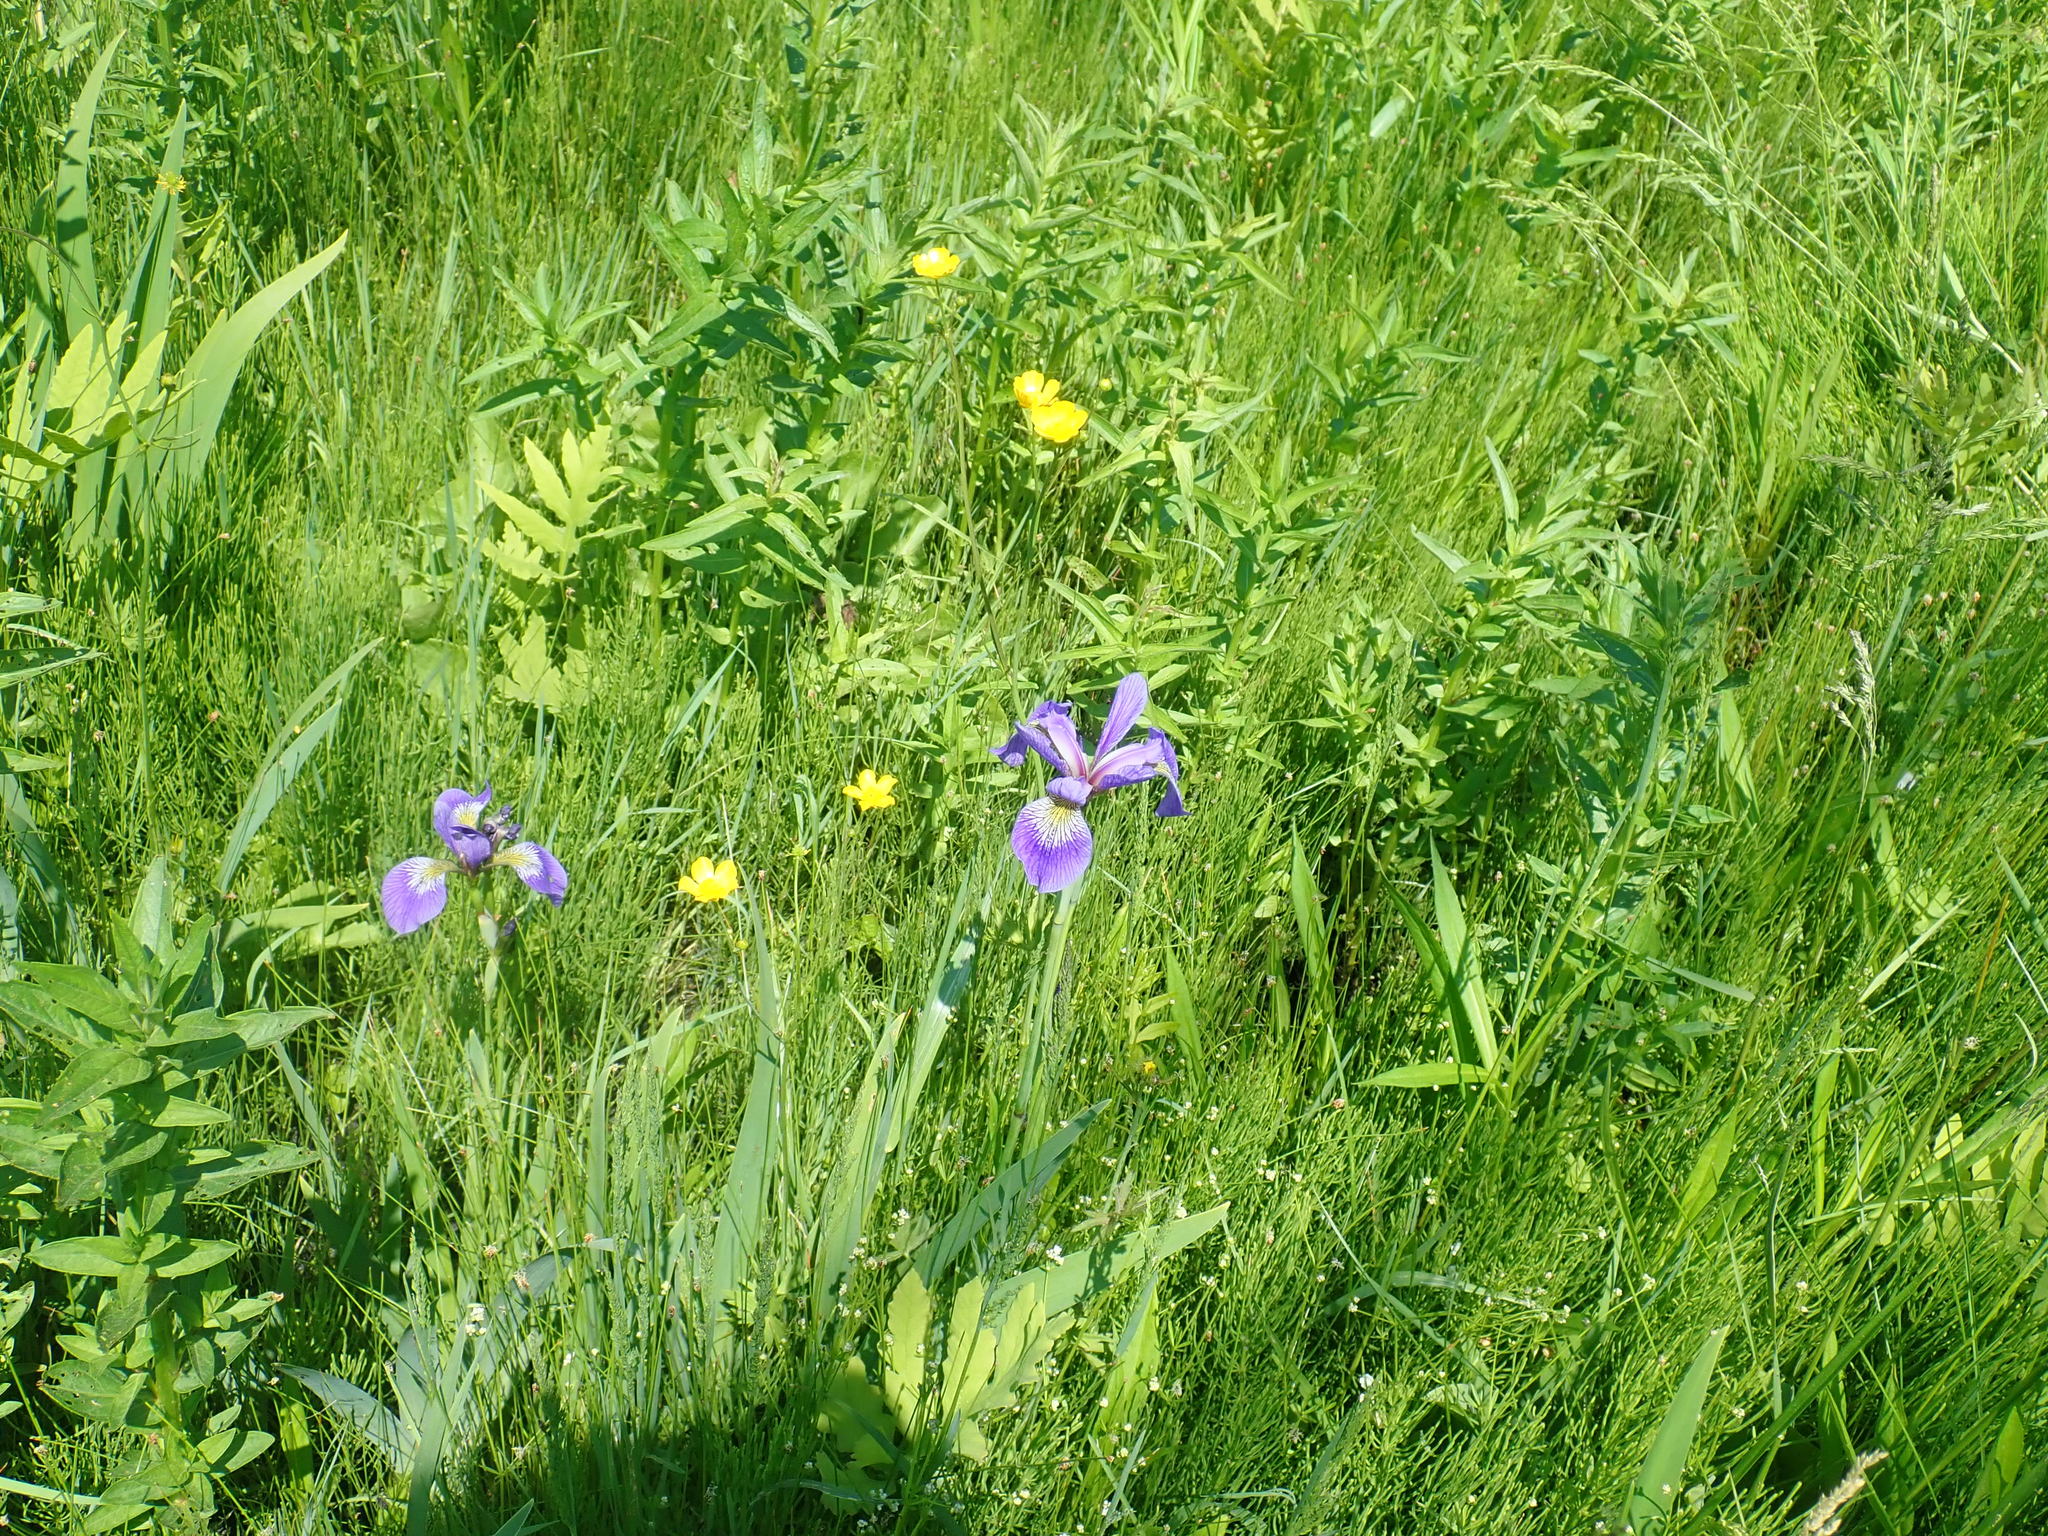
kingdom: Plantae
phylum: Tracheophyta
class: Liliopsida
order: Asparagales
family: Iridaceae
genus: Iris
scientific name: Iris versicolor
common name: Purple iris
